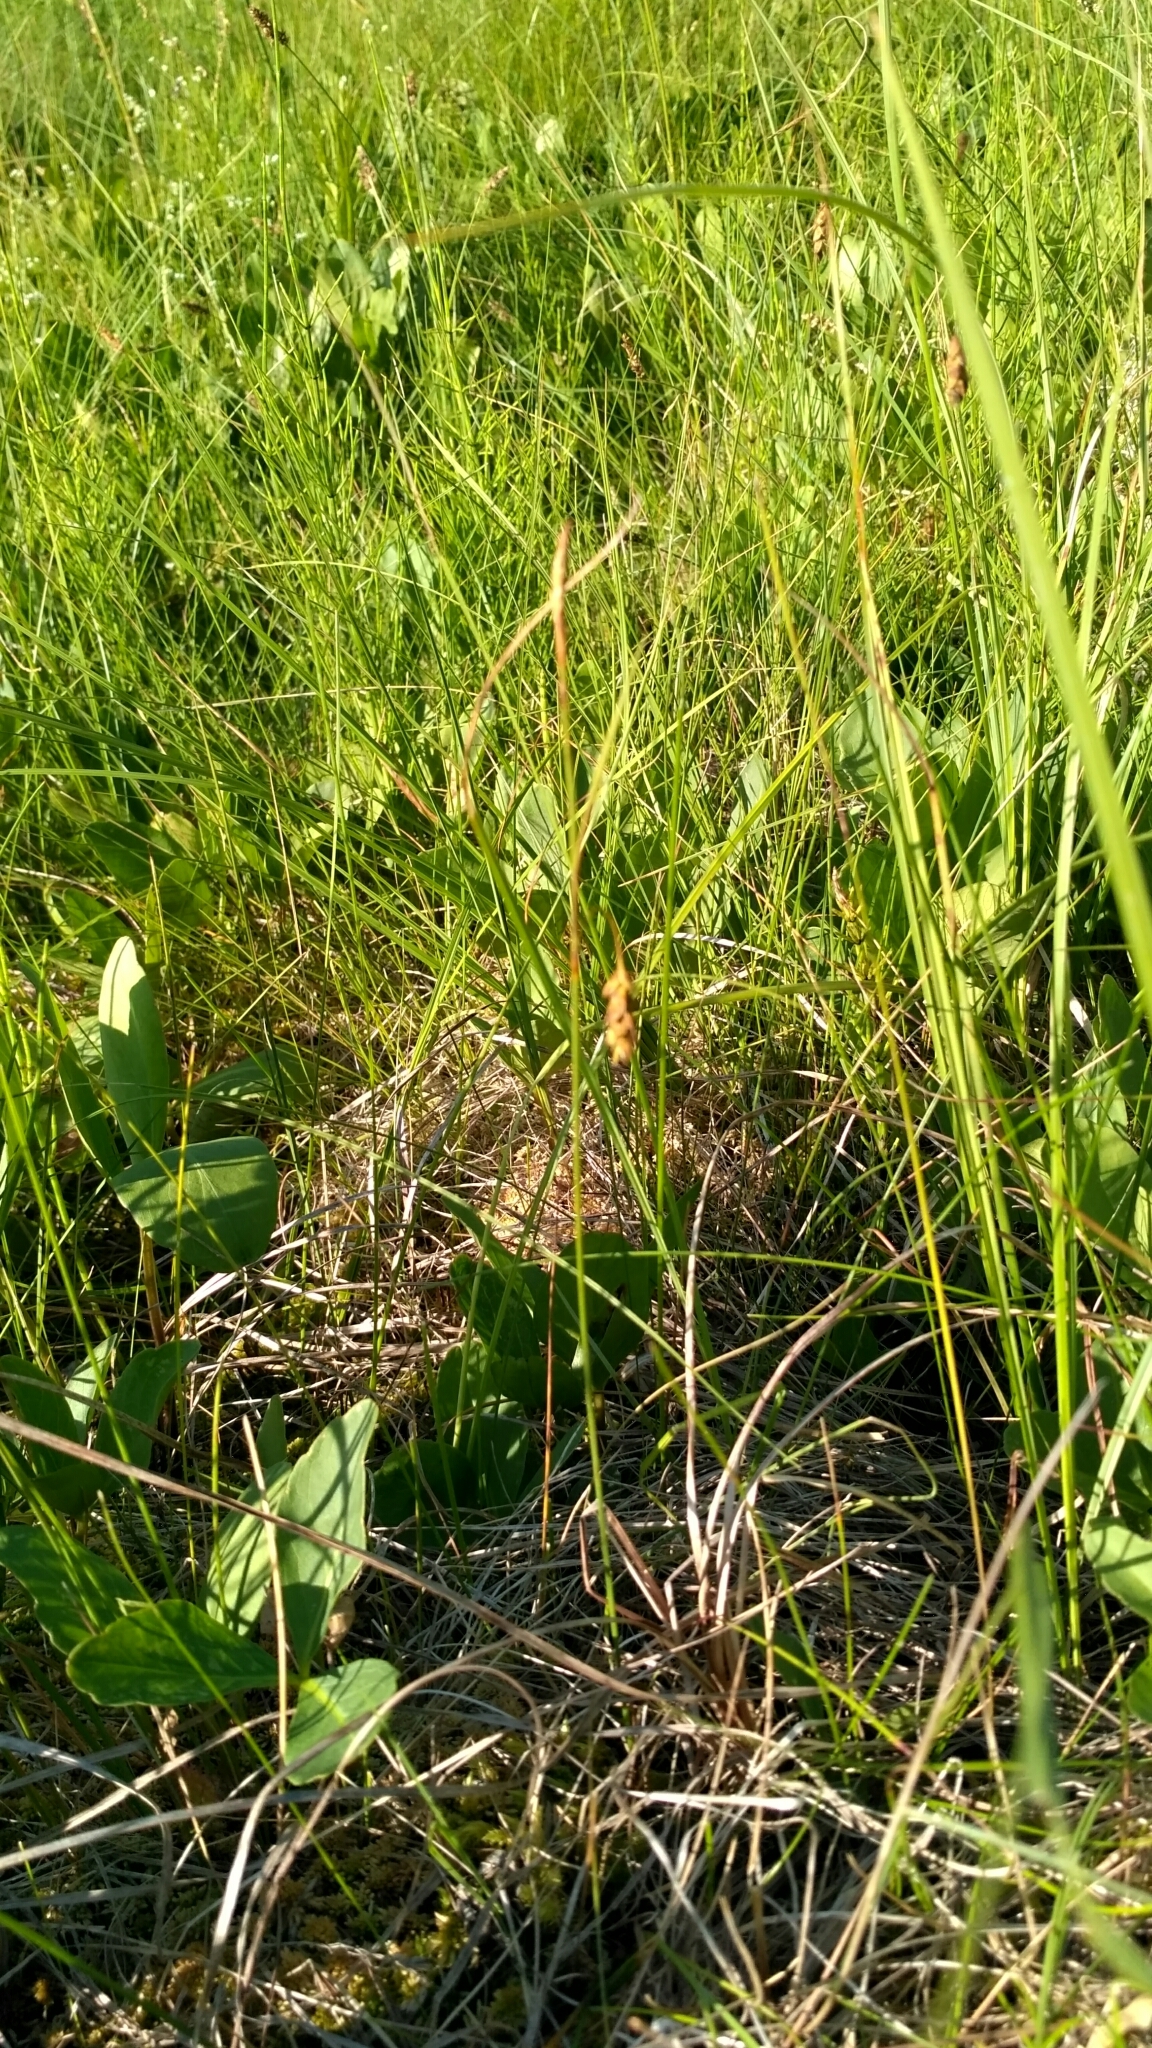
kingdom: Plantae
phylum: Tracheophyta
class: Liliopsida
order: Poales
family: Cyperaceae
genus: Carex
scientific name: Carex limosa
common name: Bog sedge
